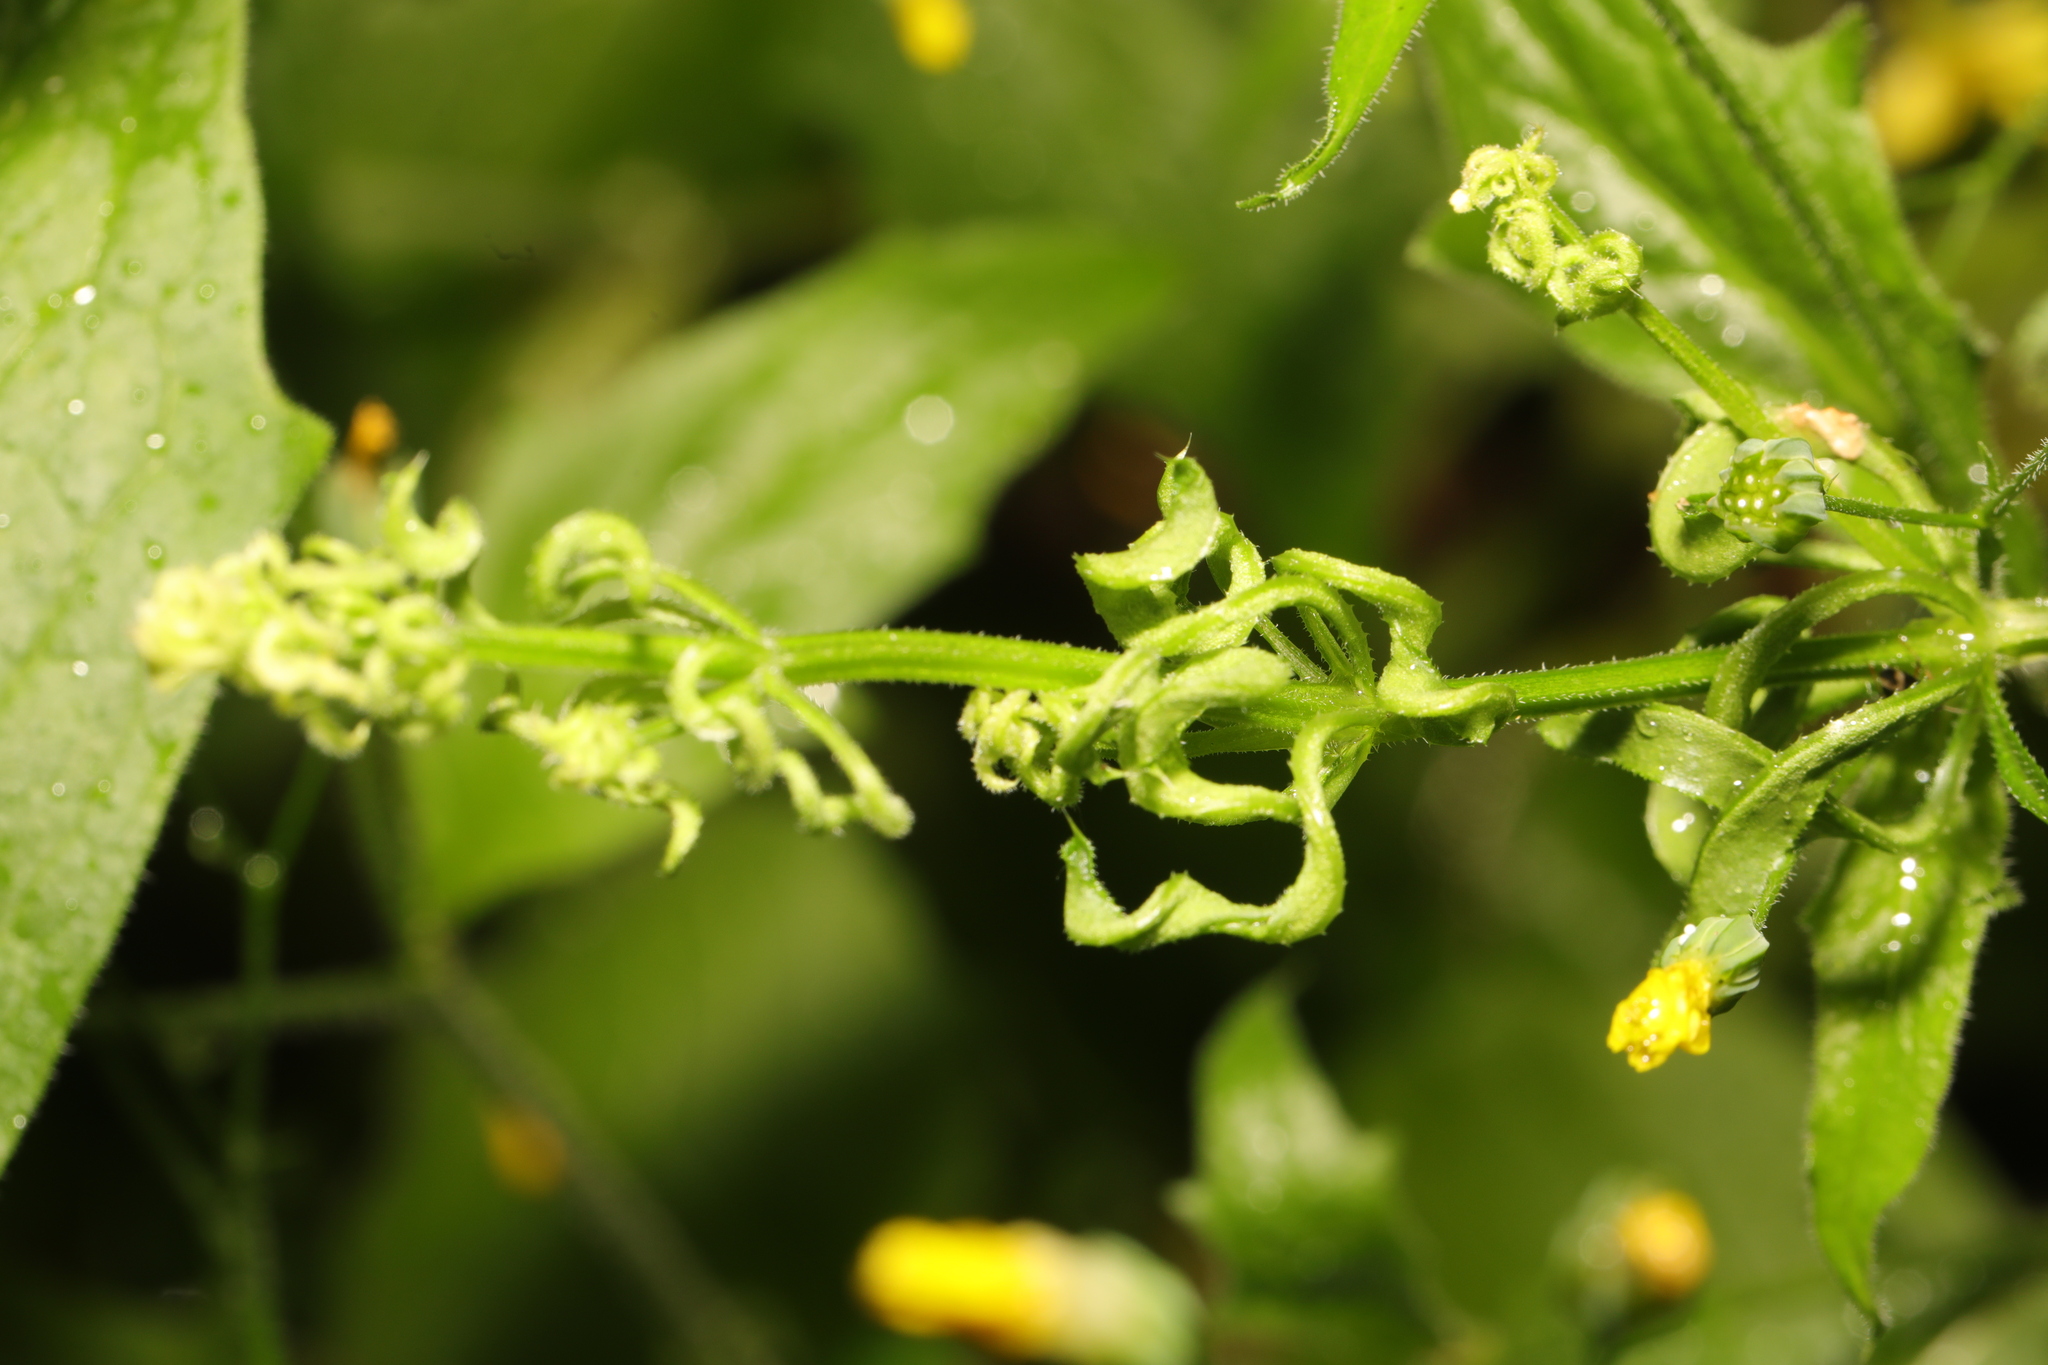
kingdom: Animalia
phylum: Arthropoda
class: Arachnida
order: Trombidiformes
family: Eriophyidae
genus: Cecidophyes
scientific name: Cecidophyes rouhollahi
